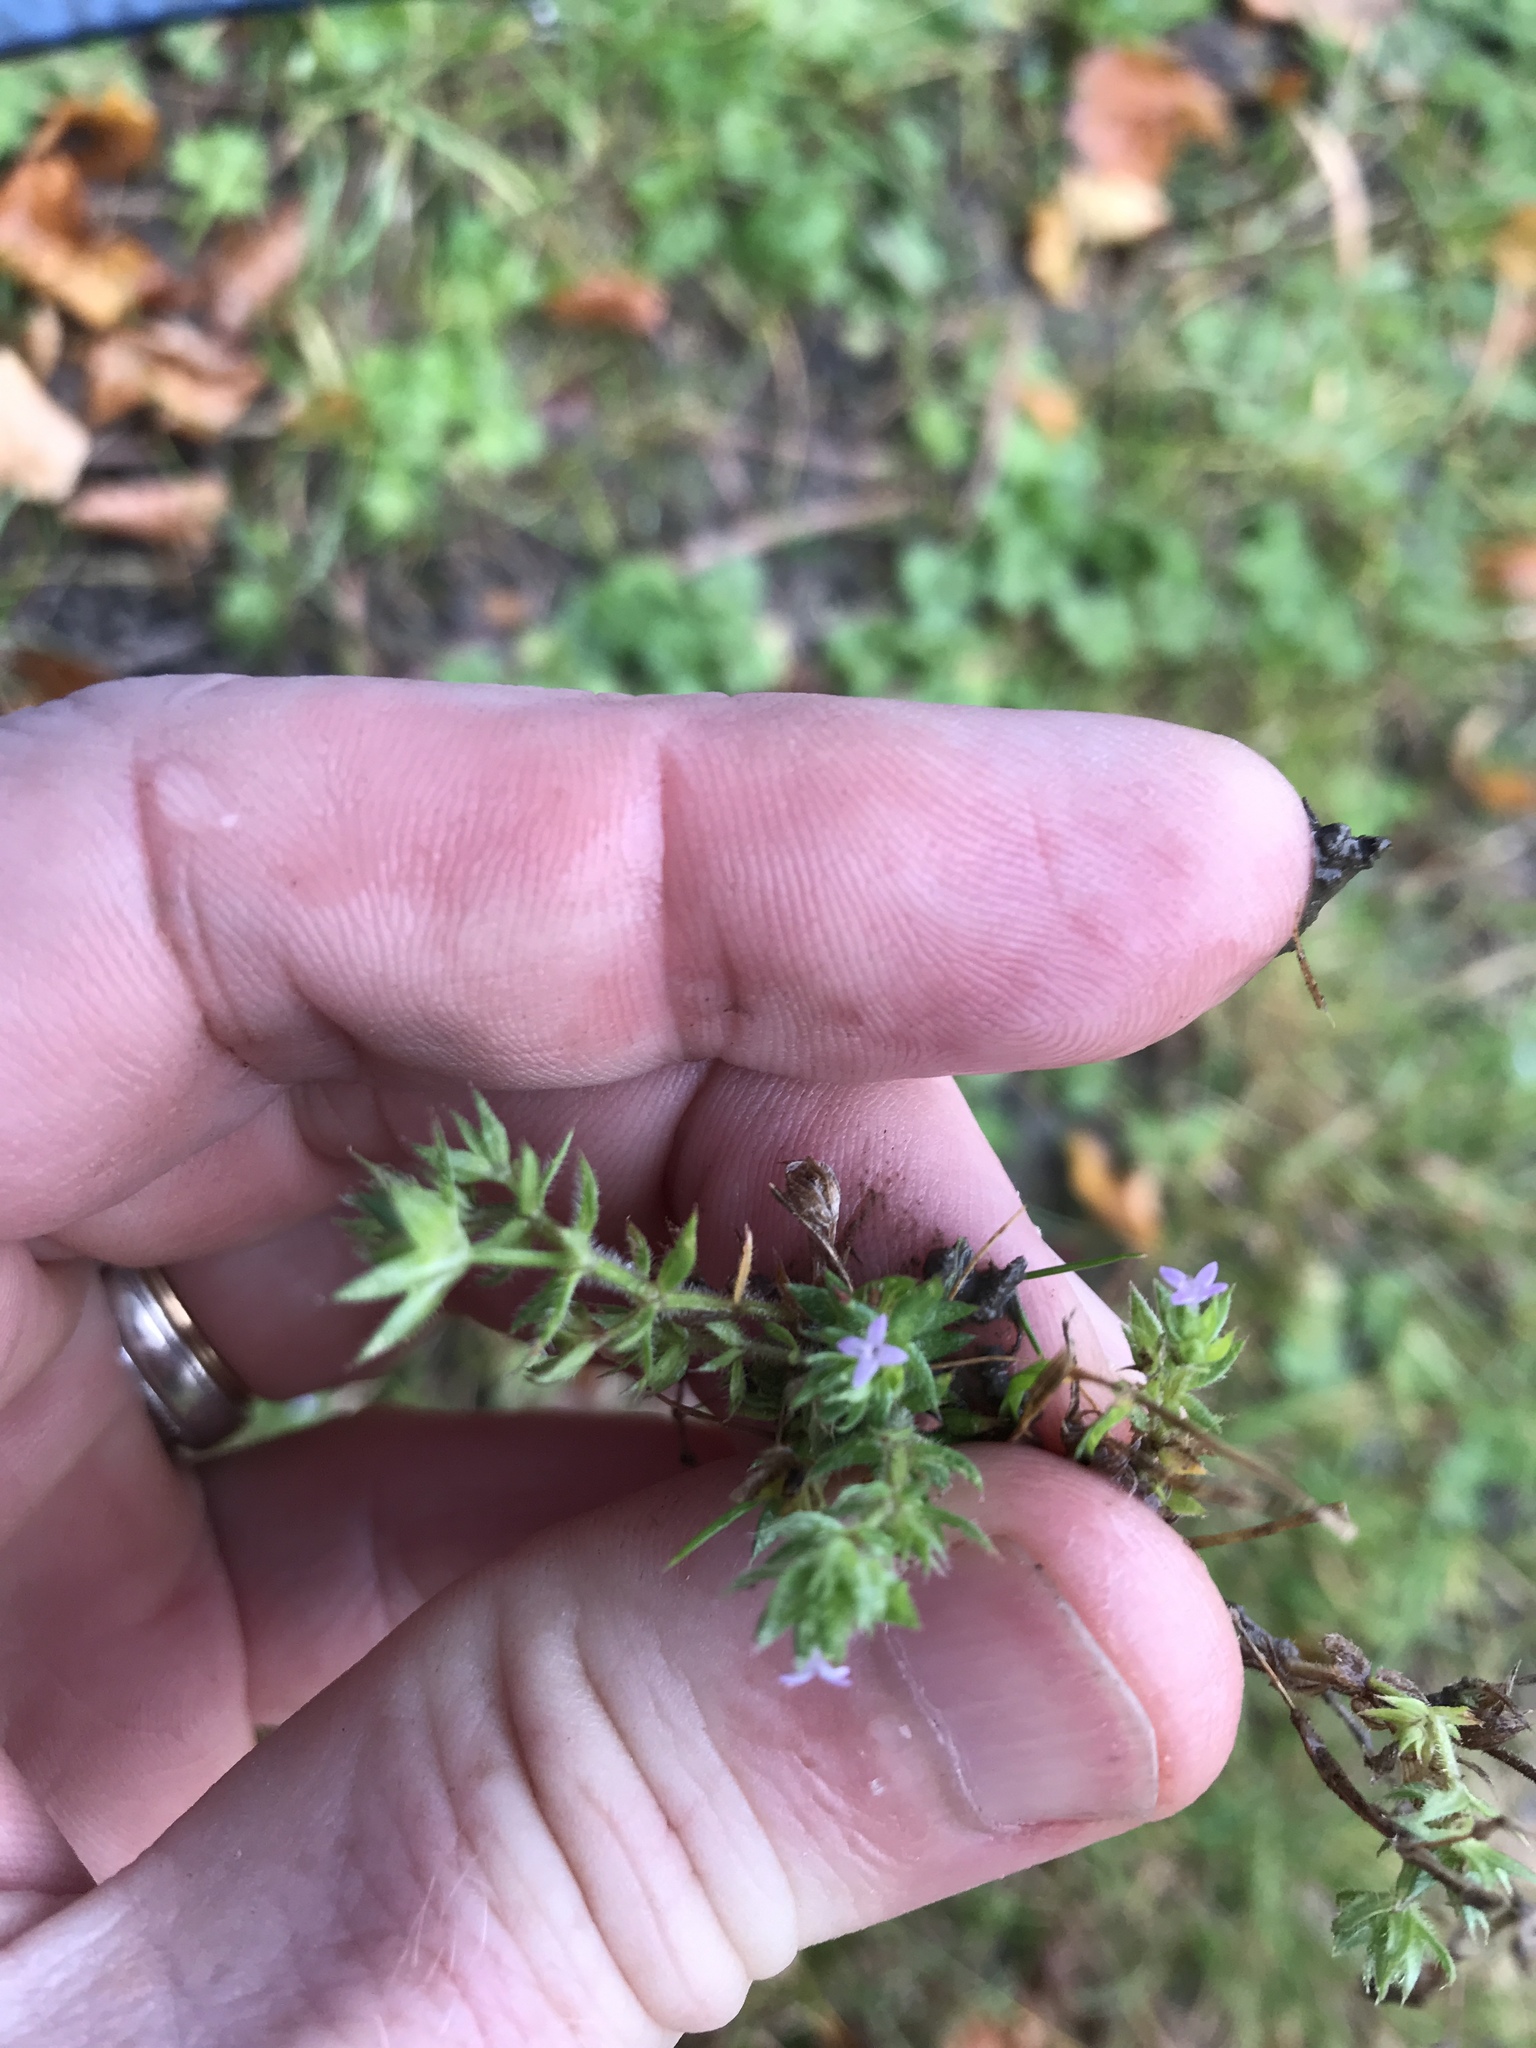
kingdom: Plantae
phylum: Tracheophyta
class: Magnoliopsida
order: Gentianales
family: Rubiaceae
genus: Sherardia
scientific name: Sherardia arvensis
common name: Field madder
